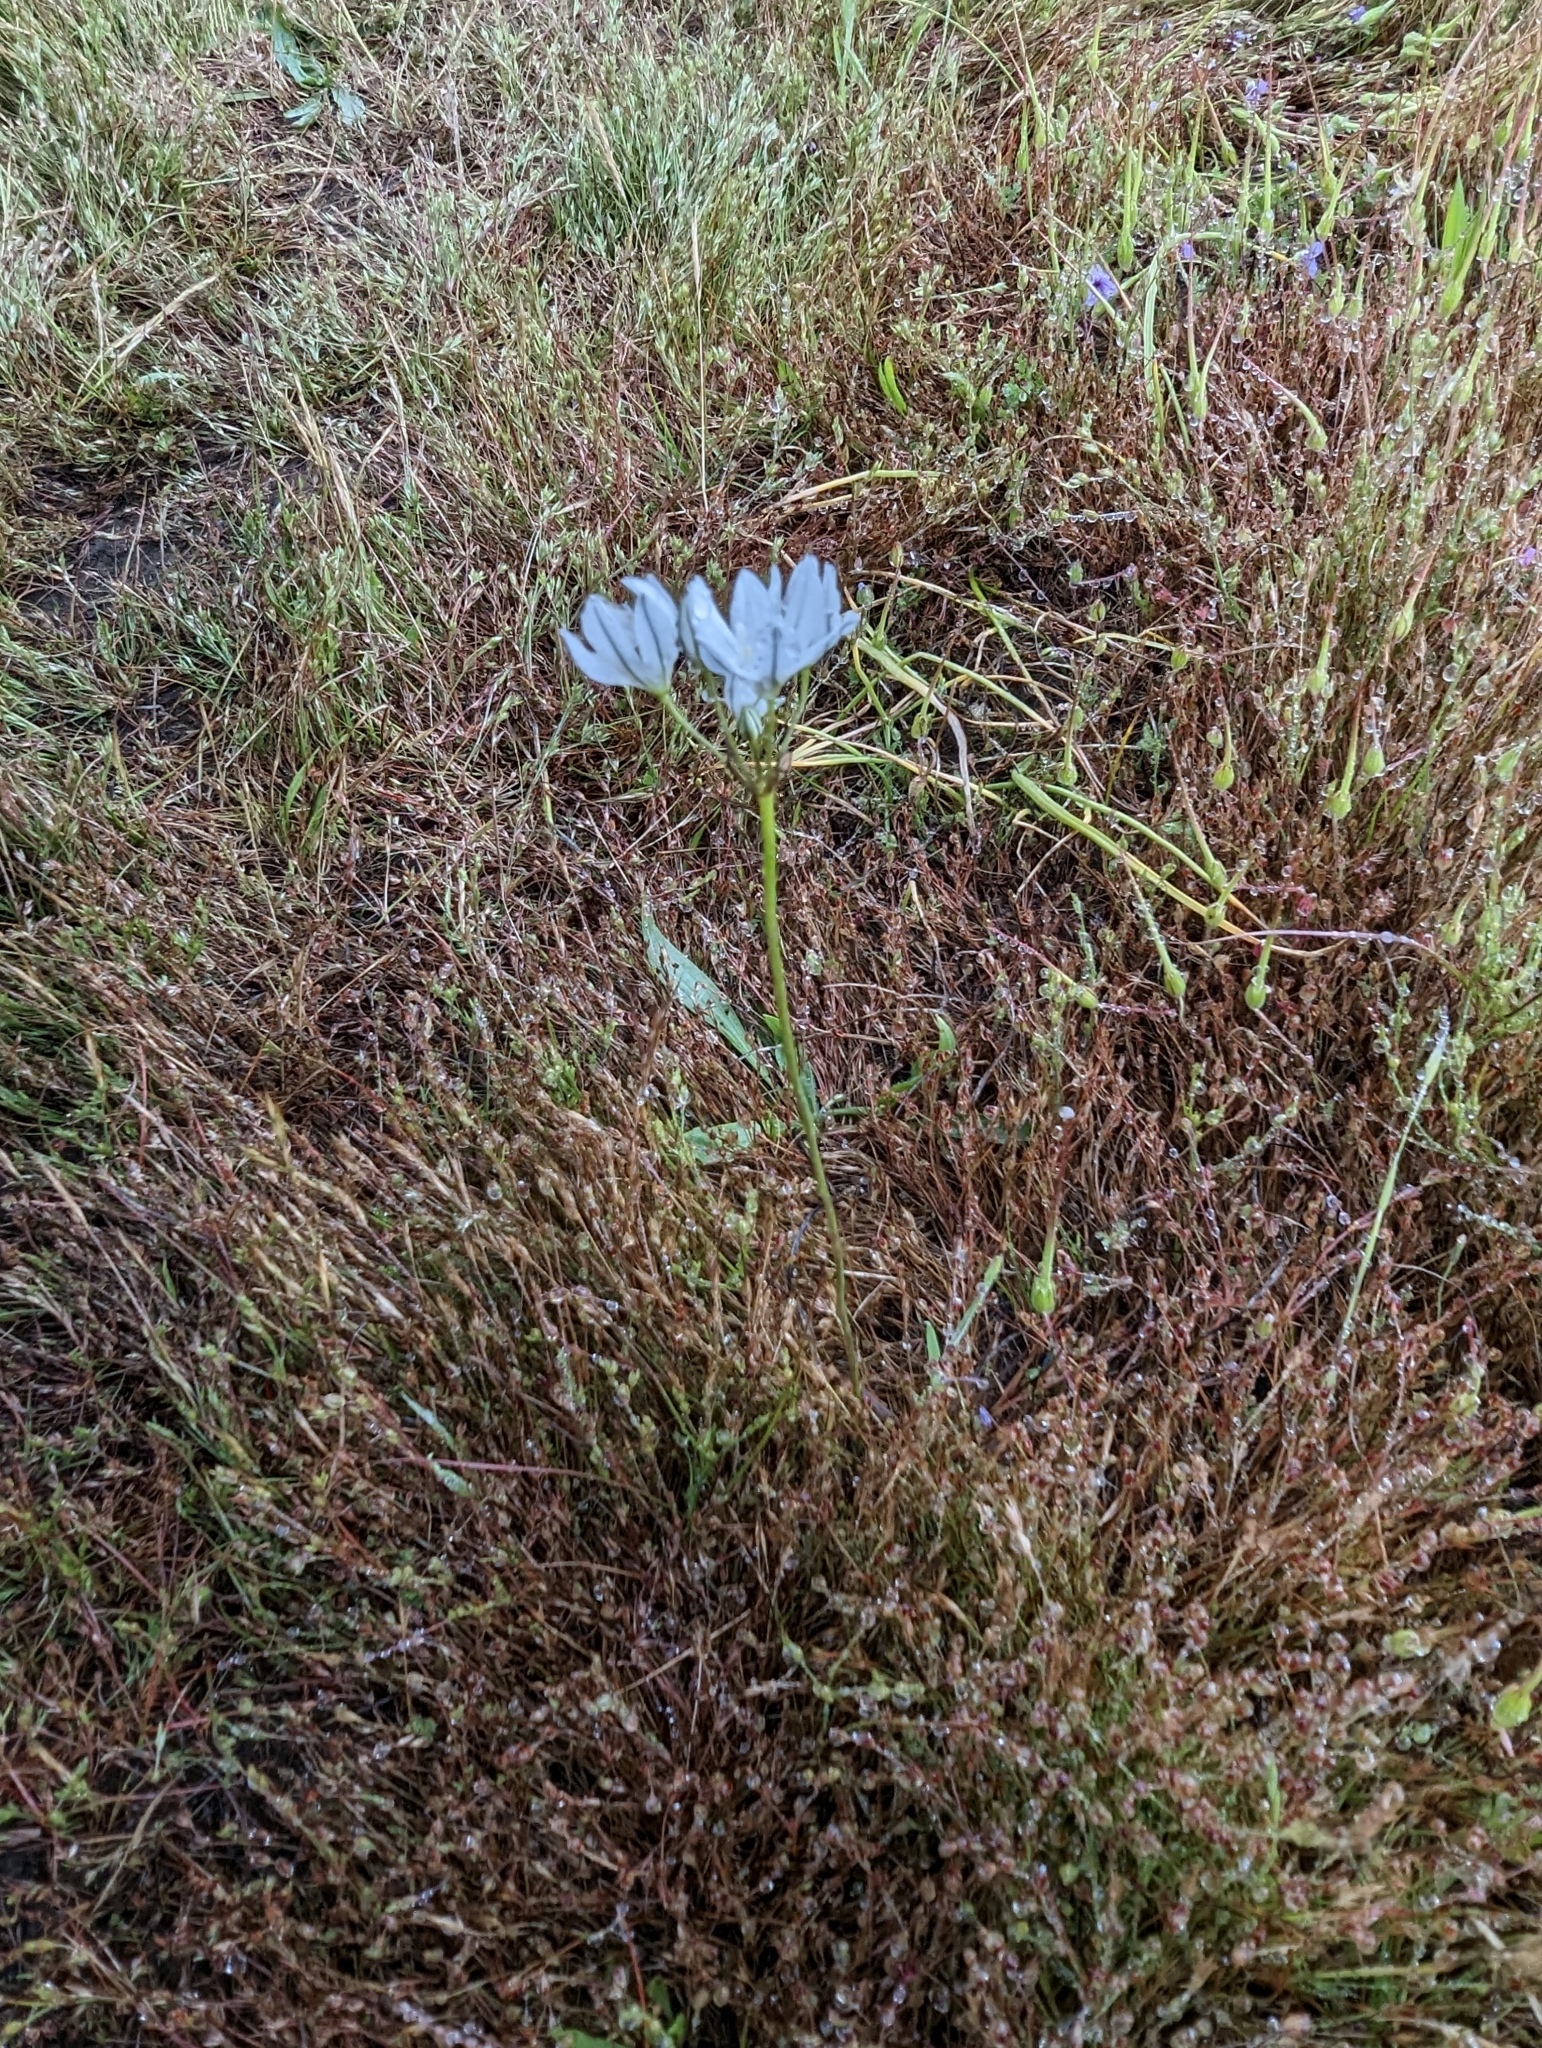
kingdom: Plantae
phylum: Tracheophyta
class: Liliopsida
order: Asparagales
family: Asparagaceae
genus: Triteleia
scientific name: Triteleia hyacinthina
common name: White brodiaea
